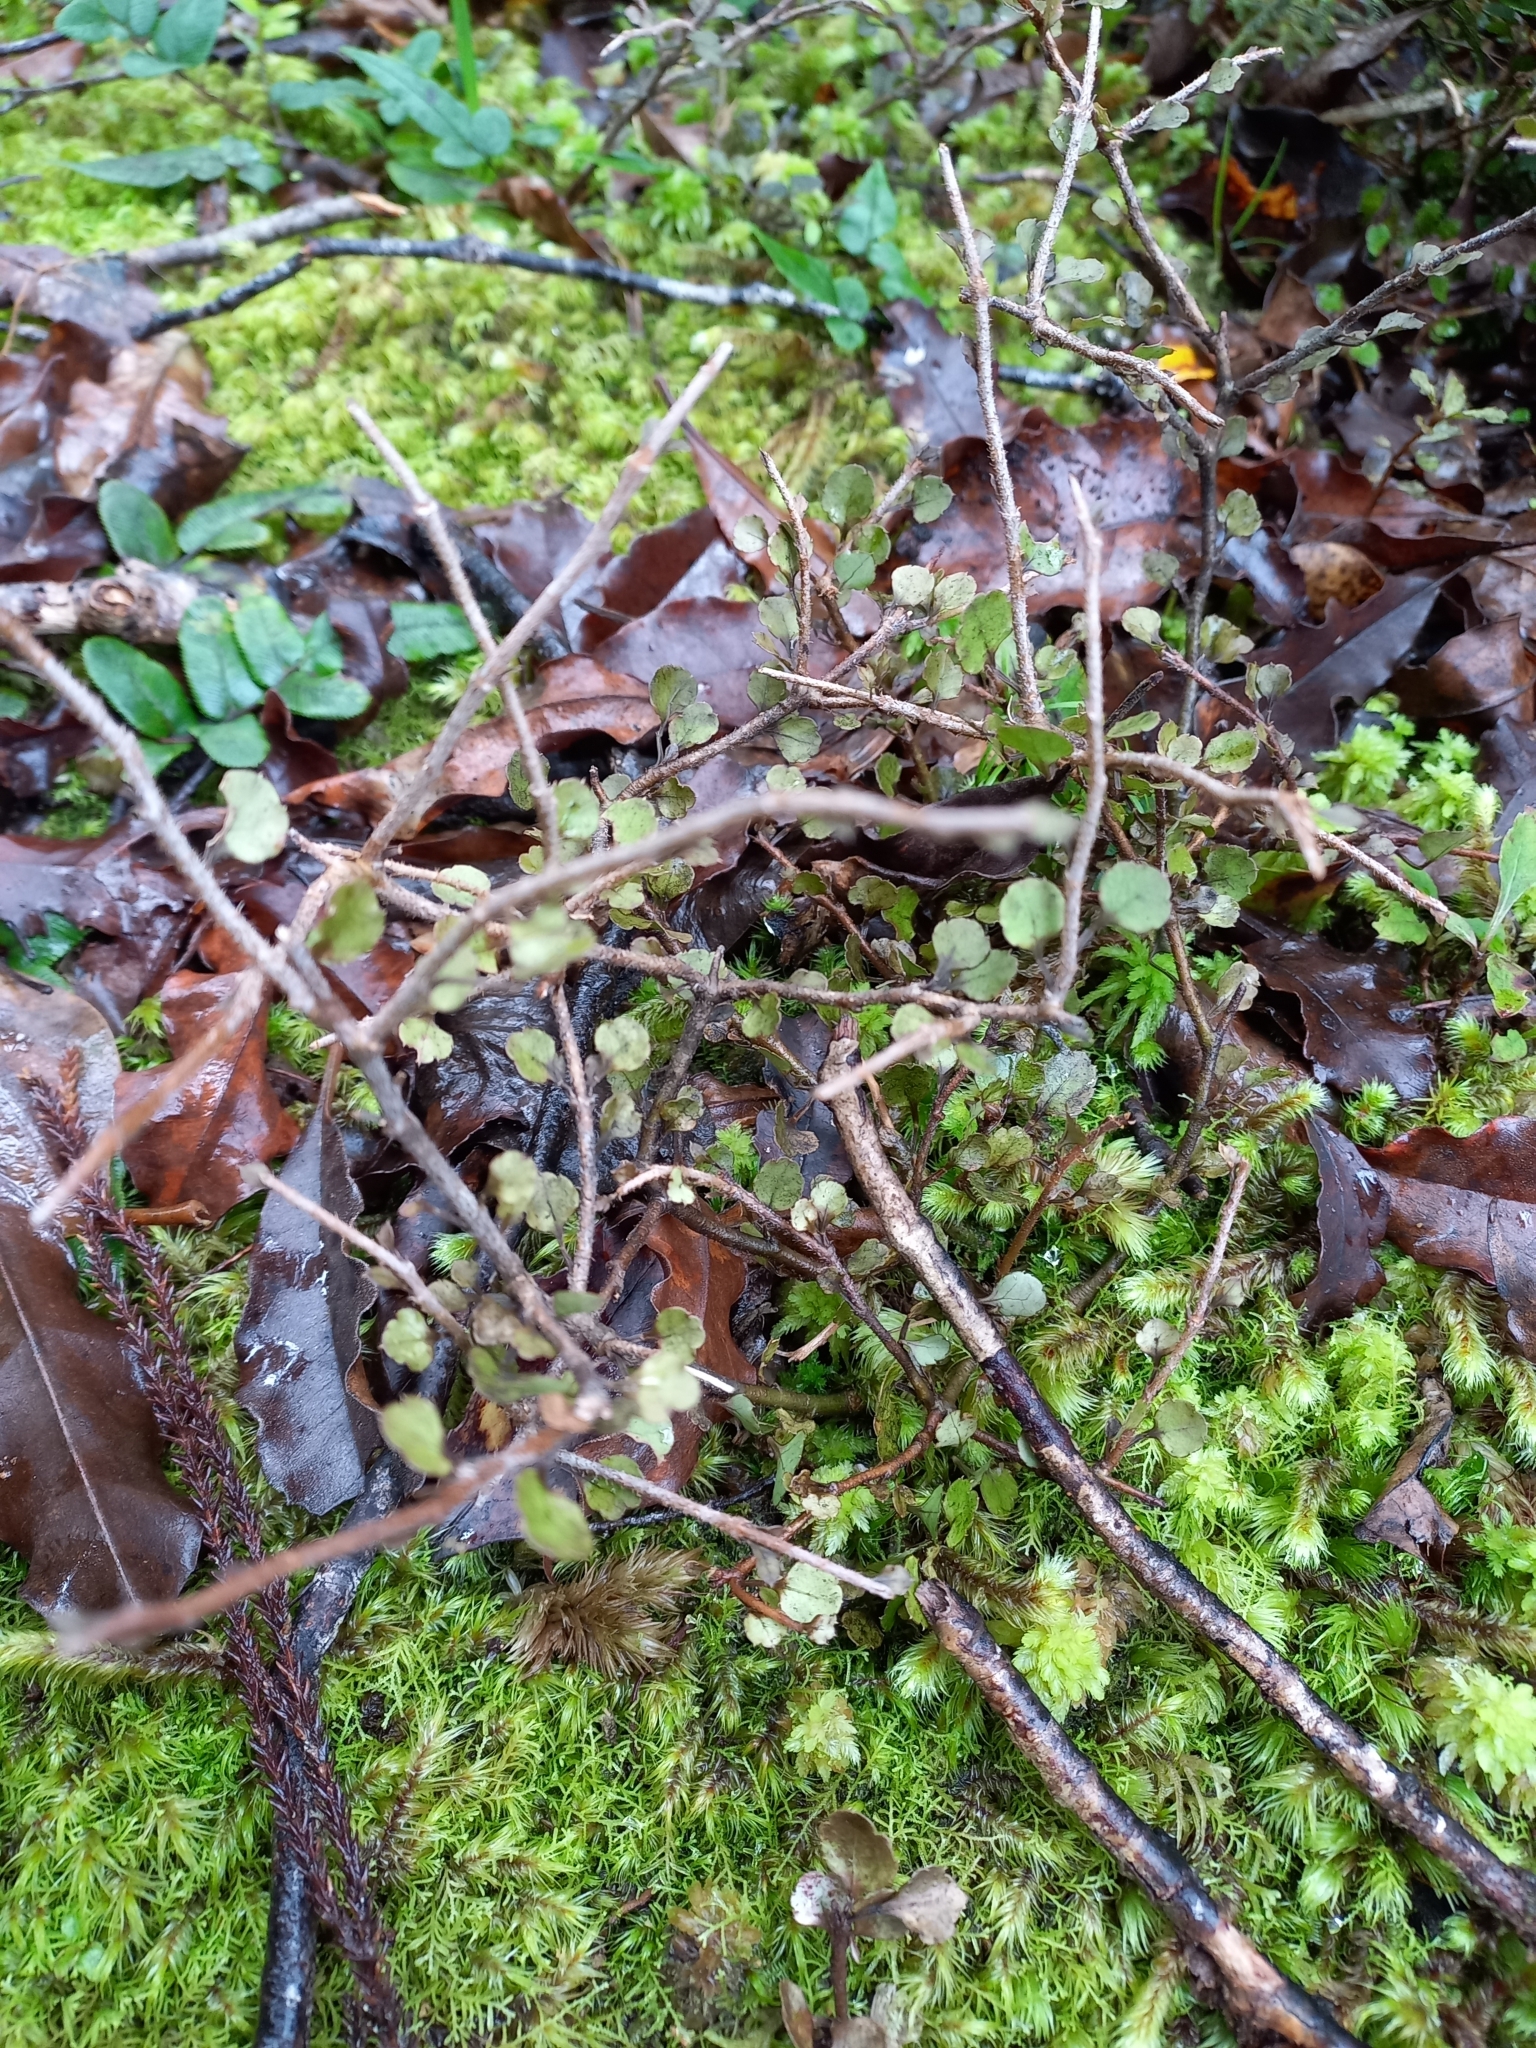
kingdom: Plantae
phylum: Tracheophyta
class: Magnoliopsida
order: Apiales
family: Araliaceae
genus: Raukaua
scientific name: Raukaua anomalus
